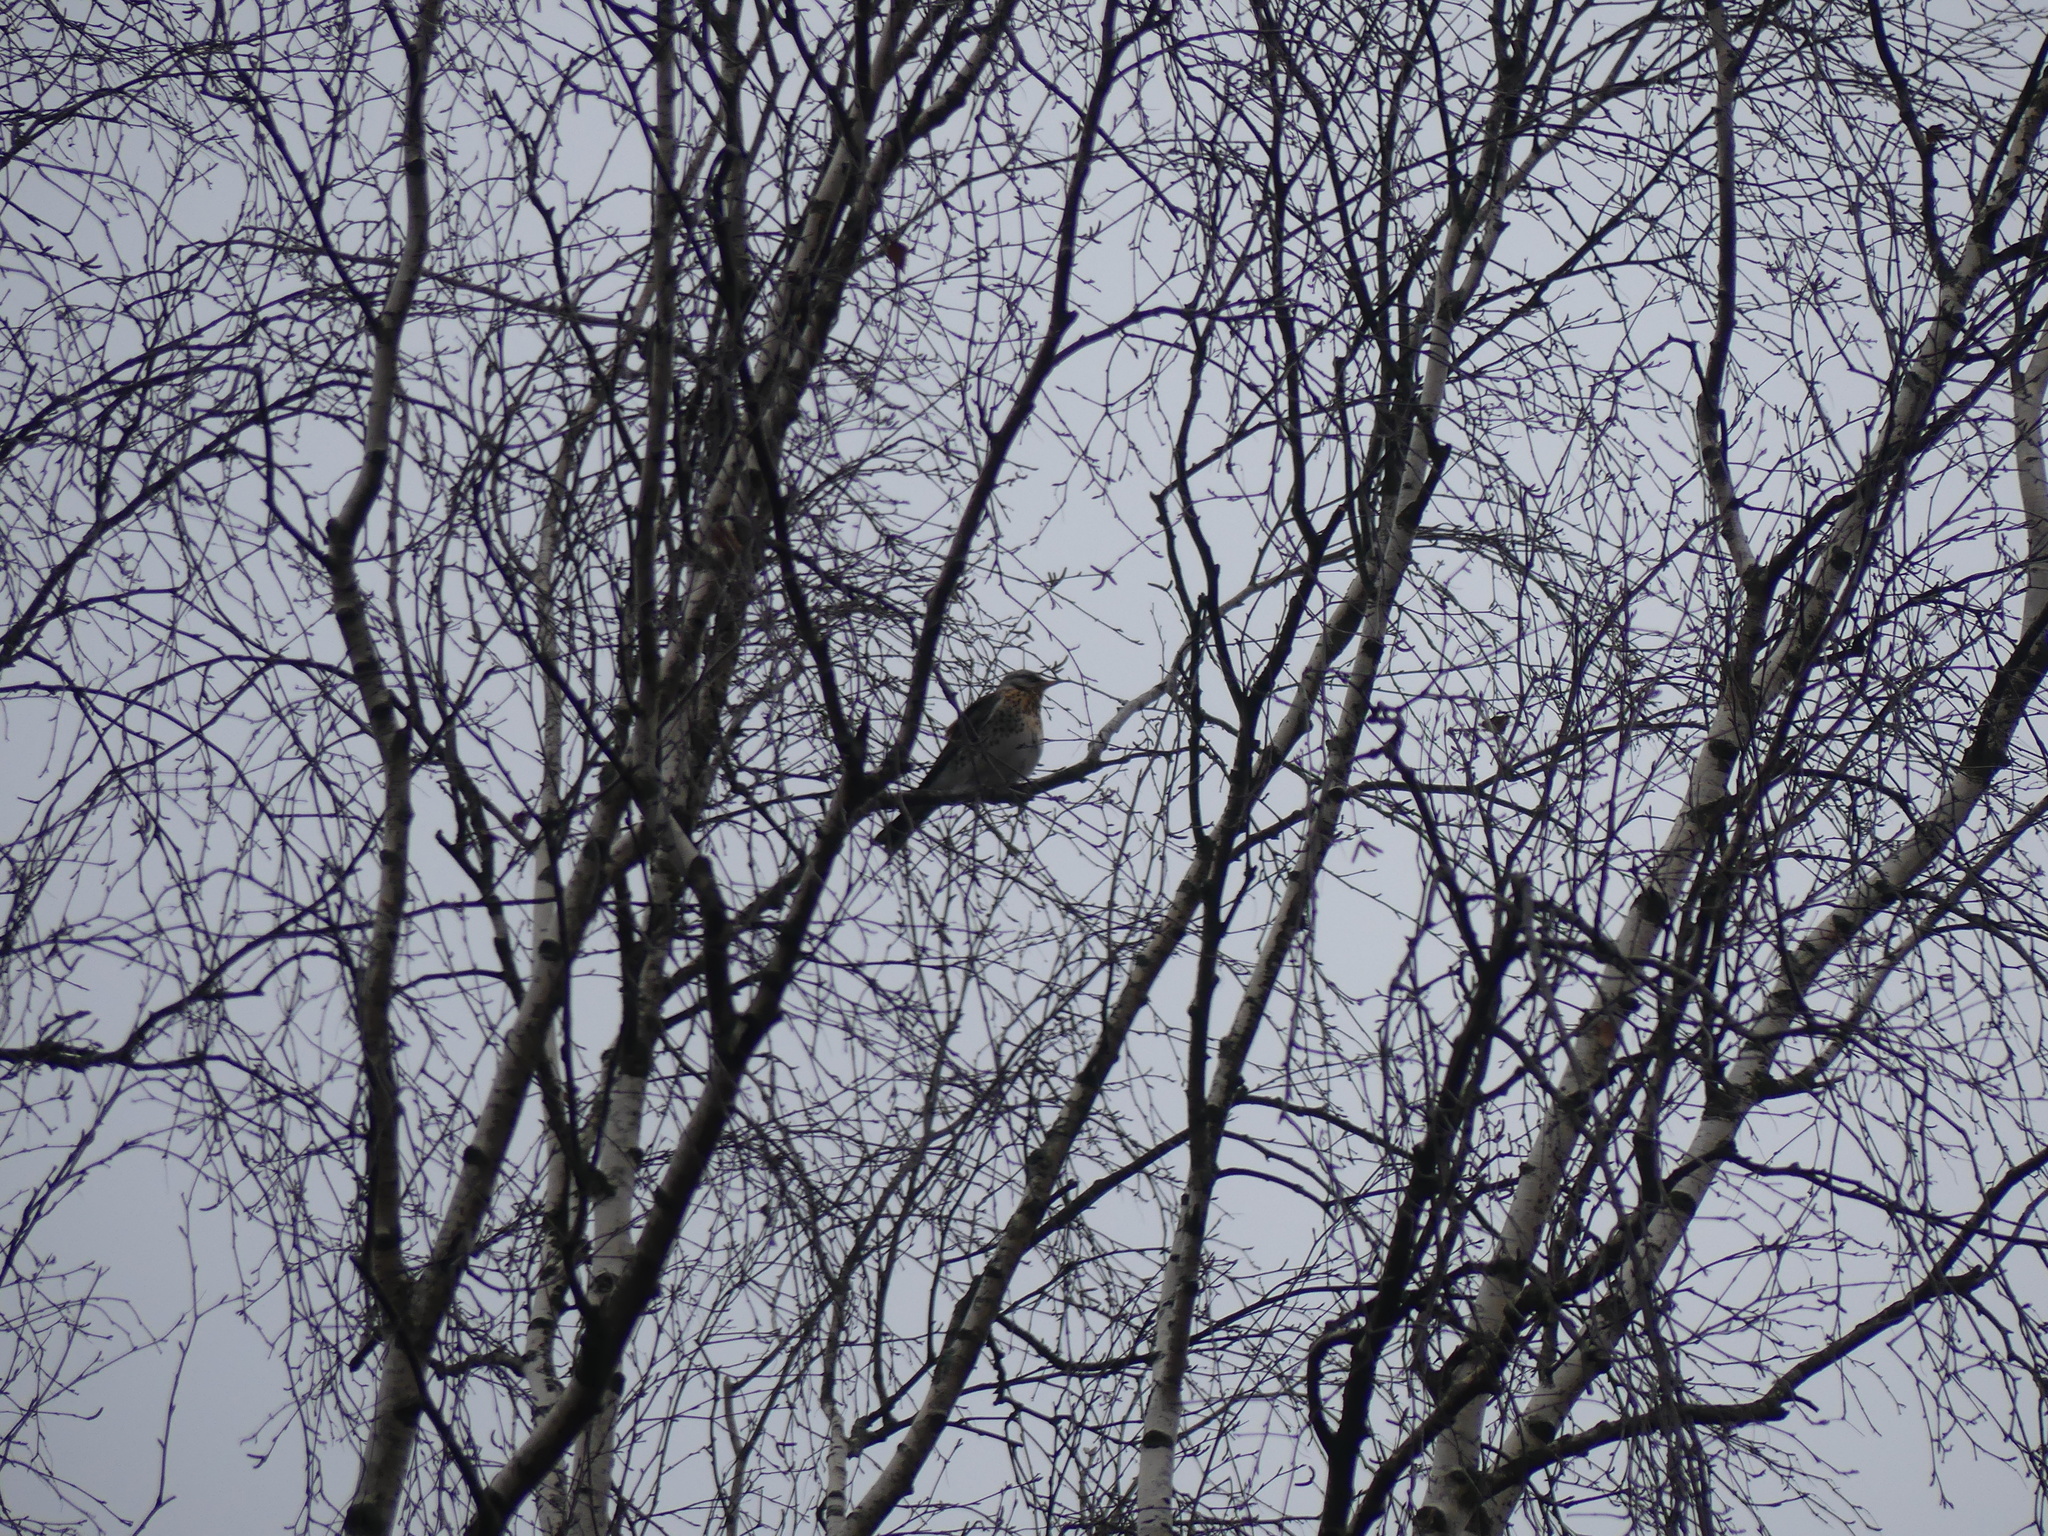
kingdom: Animalia
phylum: Chordata
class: Aves
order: Passeriformes
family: Turdidae
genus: Turdus
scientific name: Turdus pilaris
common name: Fieldfare
